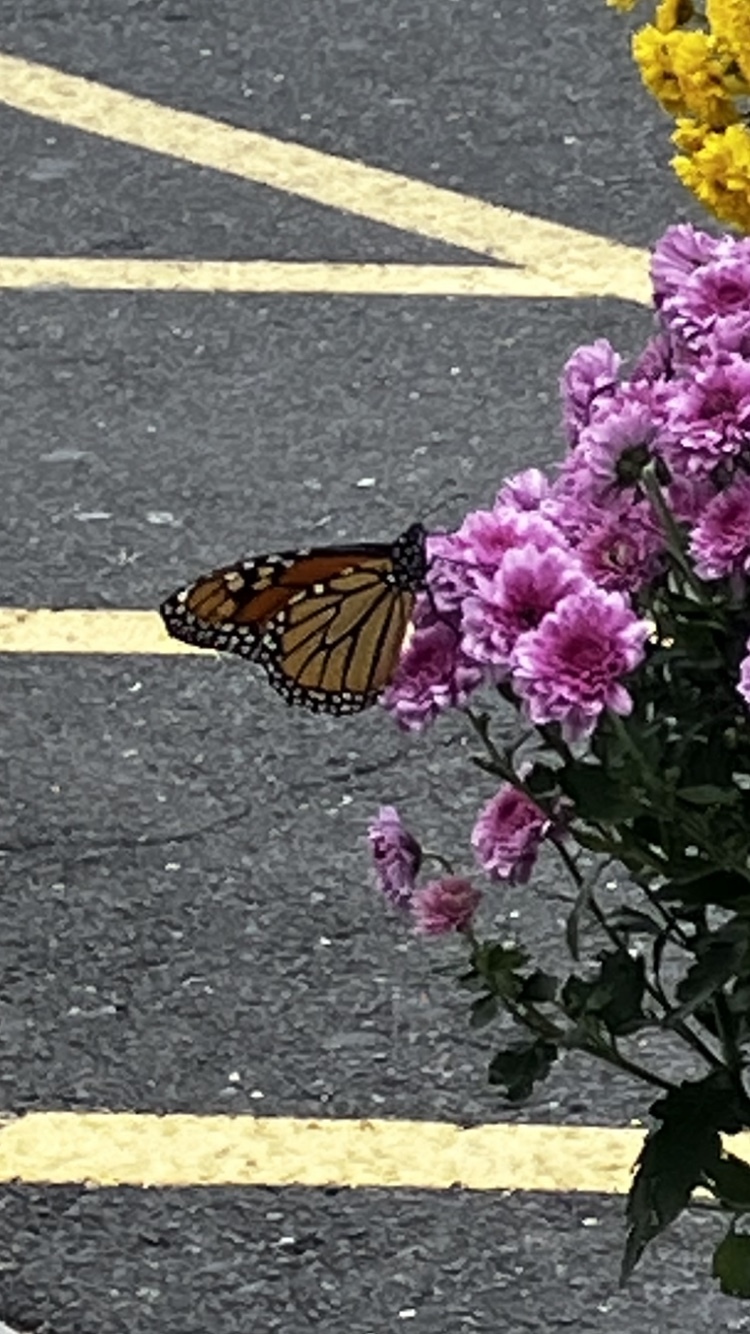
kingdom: Animalia
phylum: Arthropoda
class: Insecta
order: Lepidoptera
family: Nymphalidae
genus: Danaus
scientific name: Danaus plexippus
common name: Monarch
